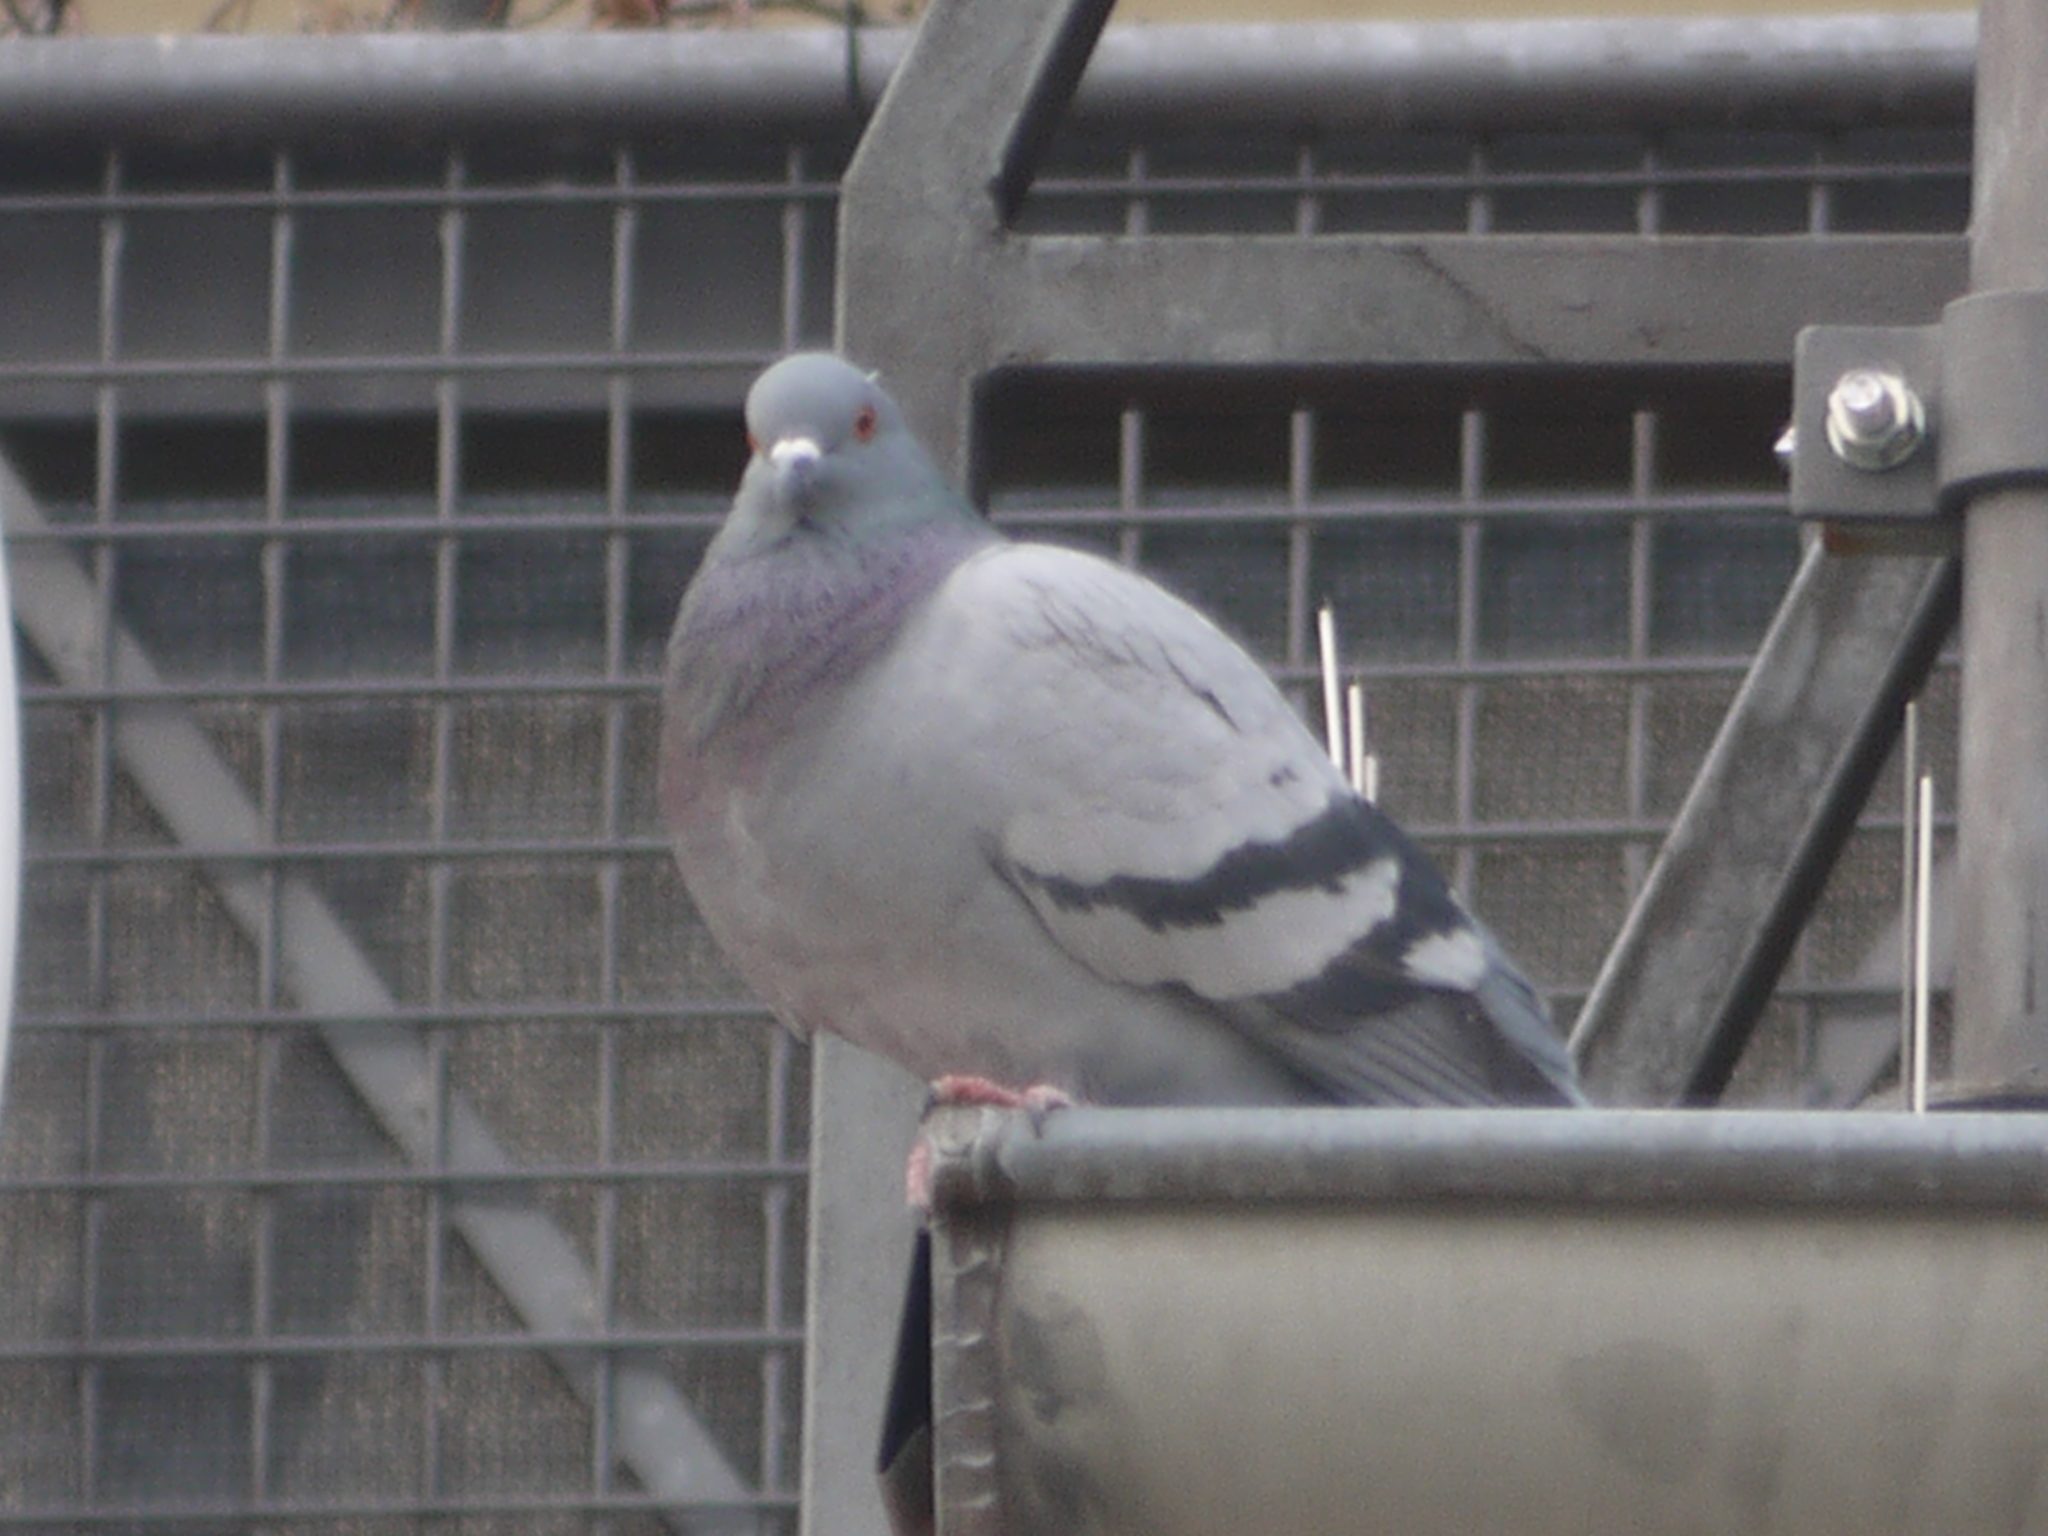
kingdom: Animalia
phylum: Chordata
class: Aves
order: Columbiformes
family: Columbidae
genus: Columba
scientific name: Columba livia
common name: Rock pigeon
